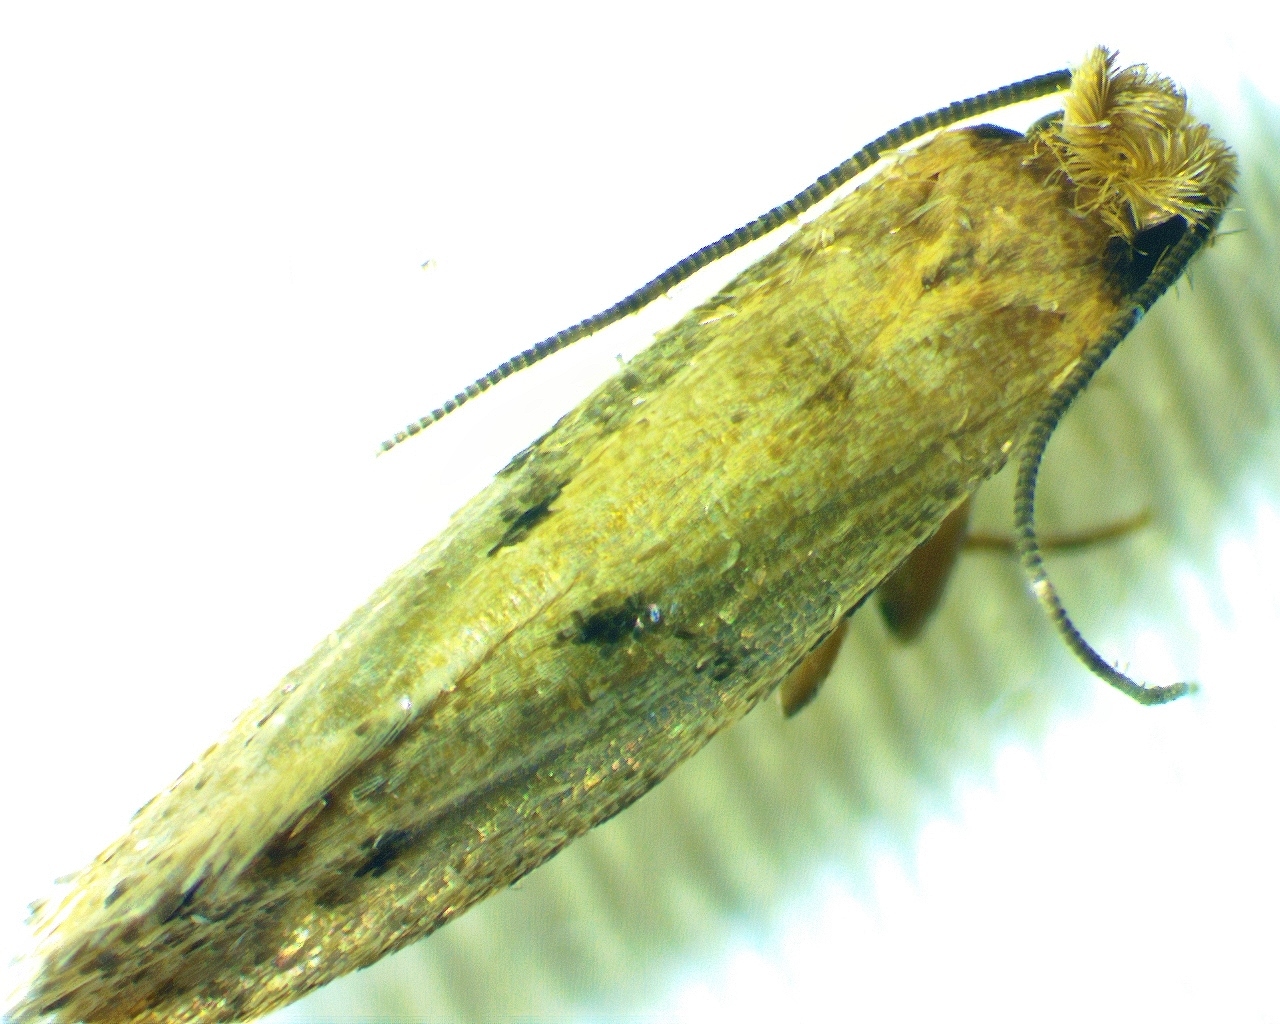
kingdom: Animalia
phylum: Arthropoda
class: Insecta
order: Lepidoptera
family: Tineidae
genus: Tinea
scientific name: Tinea pellionella
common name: Case-making clothes moth
